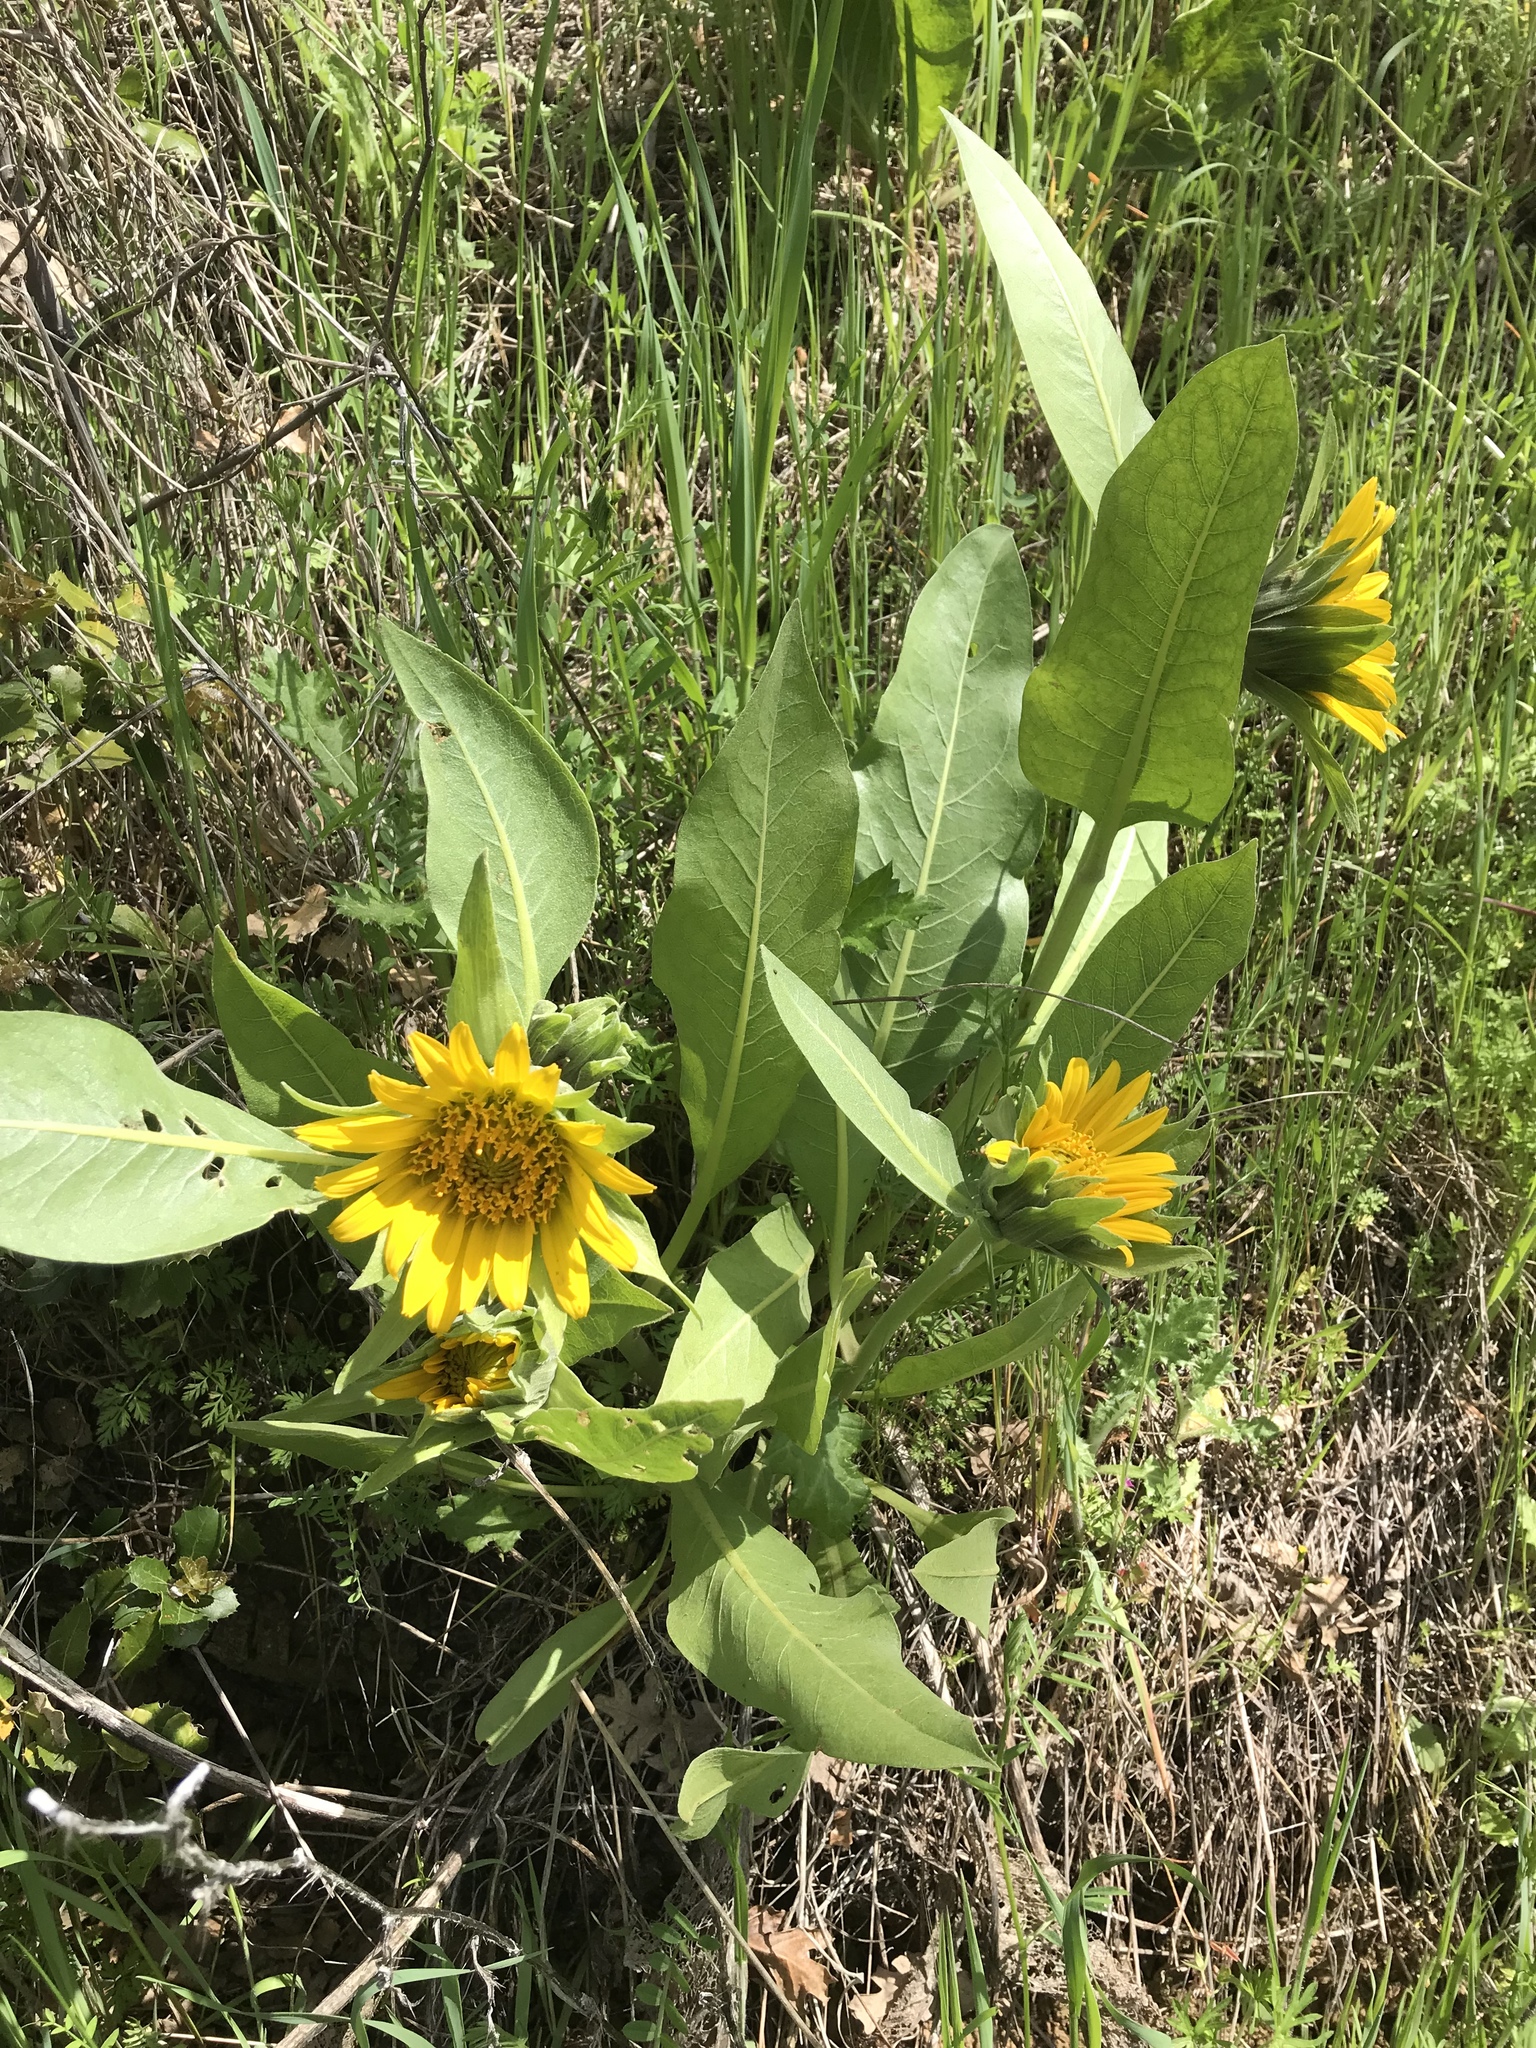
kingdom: Plantae
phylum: Tracheophyta
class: Magnoliopsida
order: Asterales
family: Asteraceae
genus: Wyethia
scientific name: Wyethia glabra
